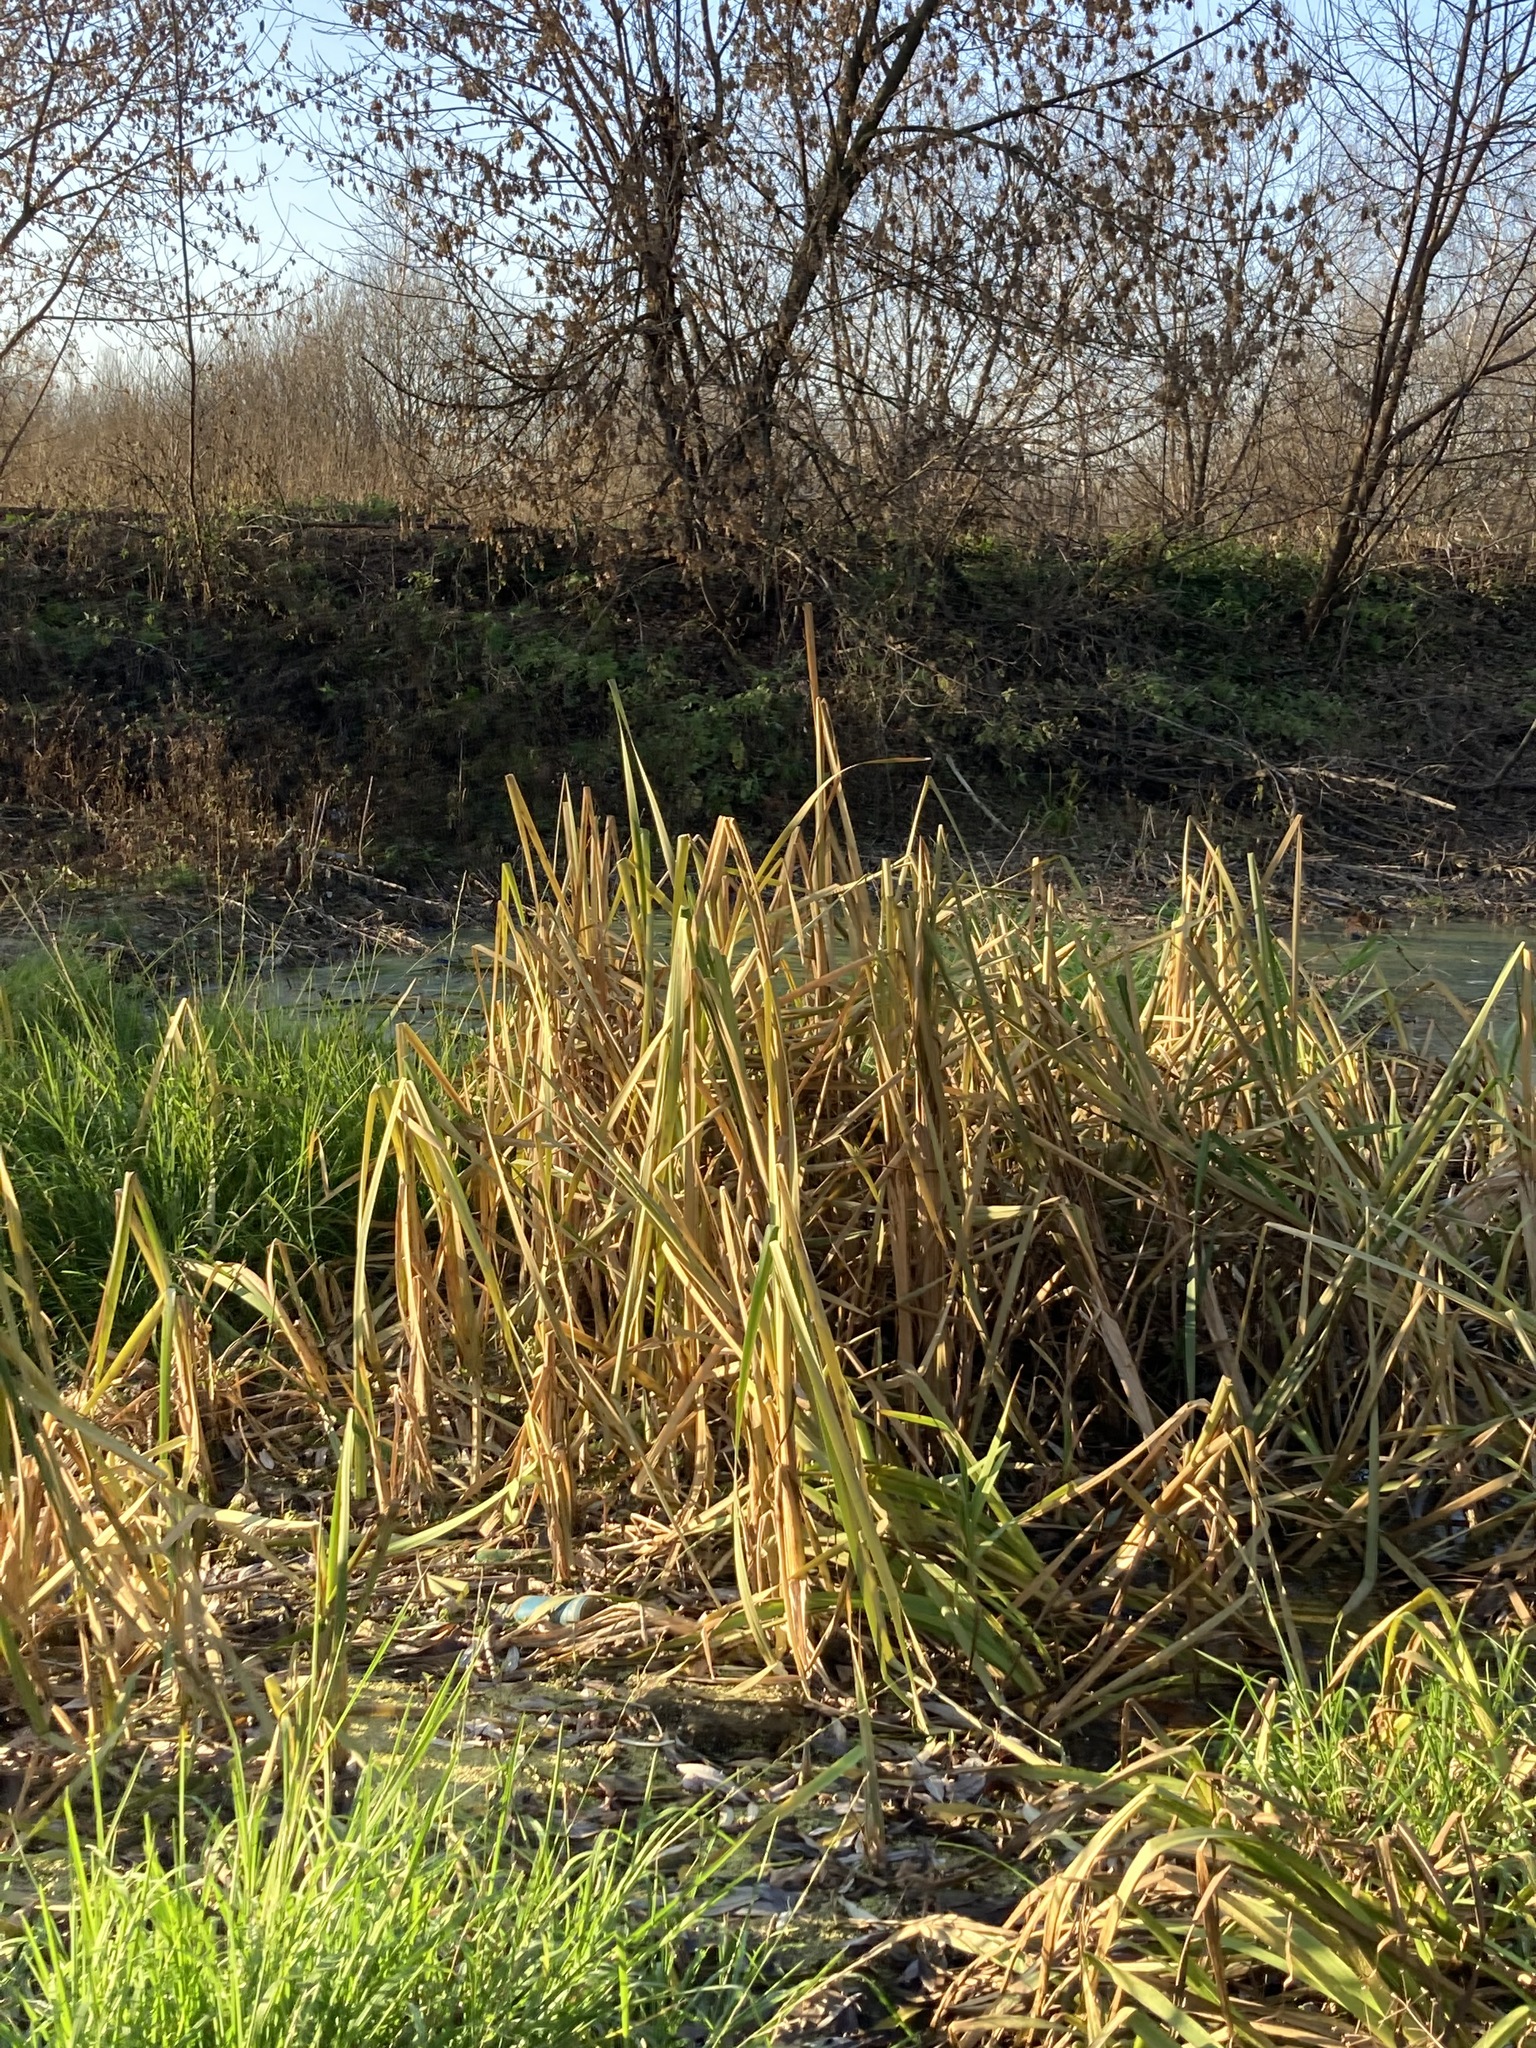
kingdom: Plantae
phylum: Tracheophyta
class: Liliopsida
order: Poales
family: Typhaceae
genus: Typha
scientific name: Typha latifolia
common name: Broadleaf cattail
